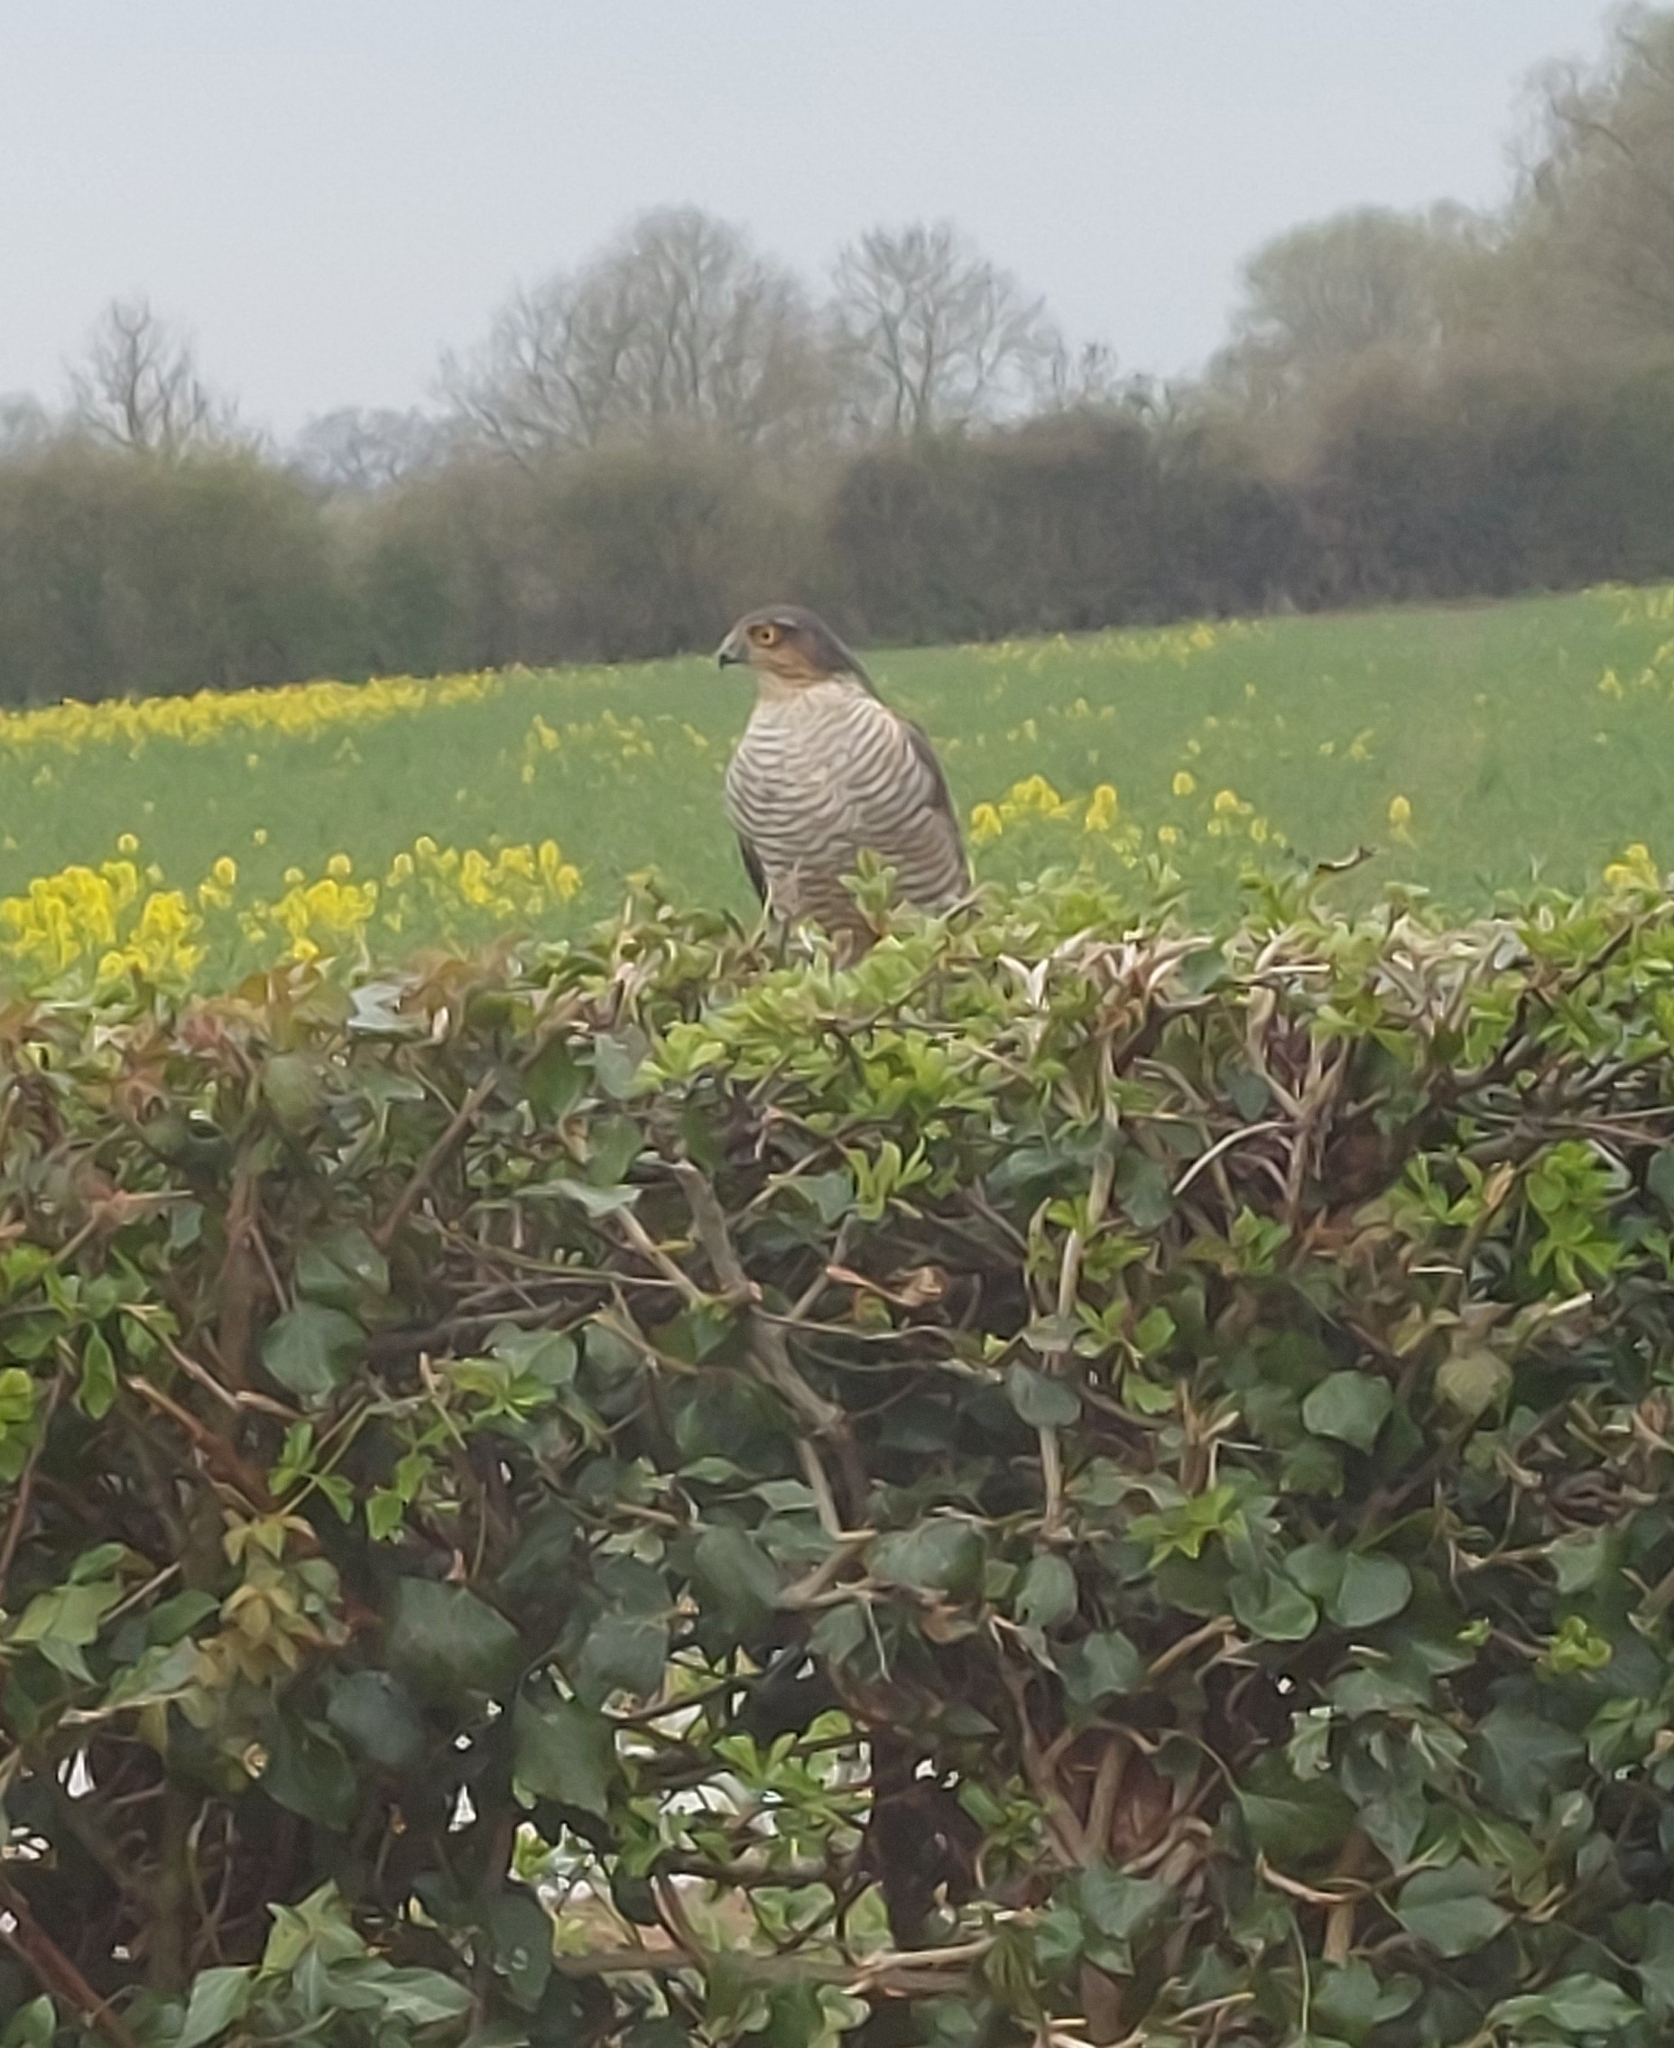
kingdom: Animalia
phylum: Chordata
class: Aves
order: Accipitriformes
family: Accipitridae
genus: Accipiter
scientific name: Accipiter nisus
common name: Eurasian sparrowhawk
